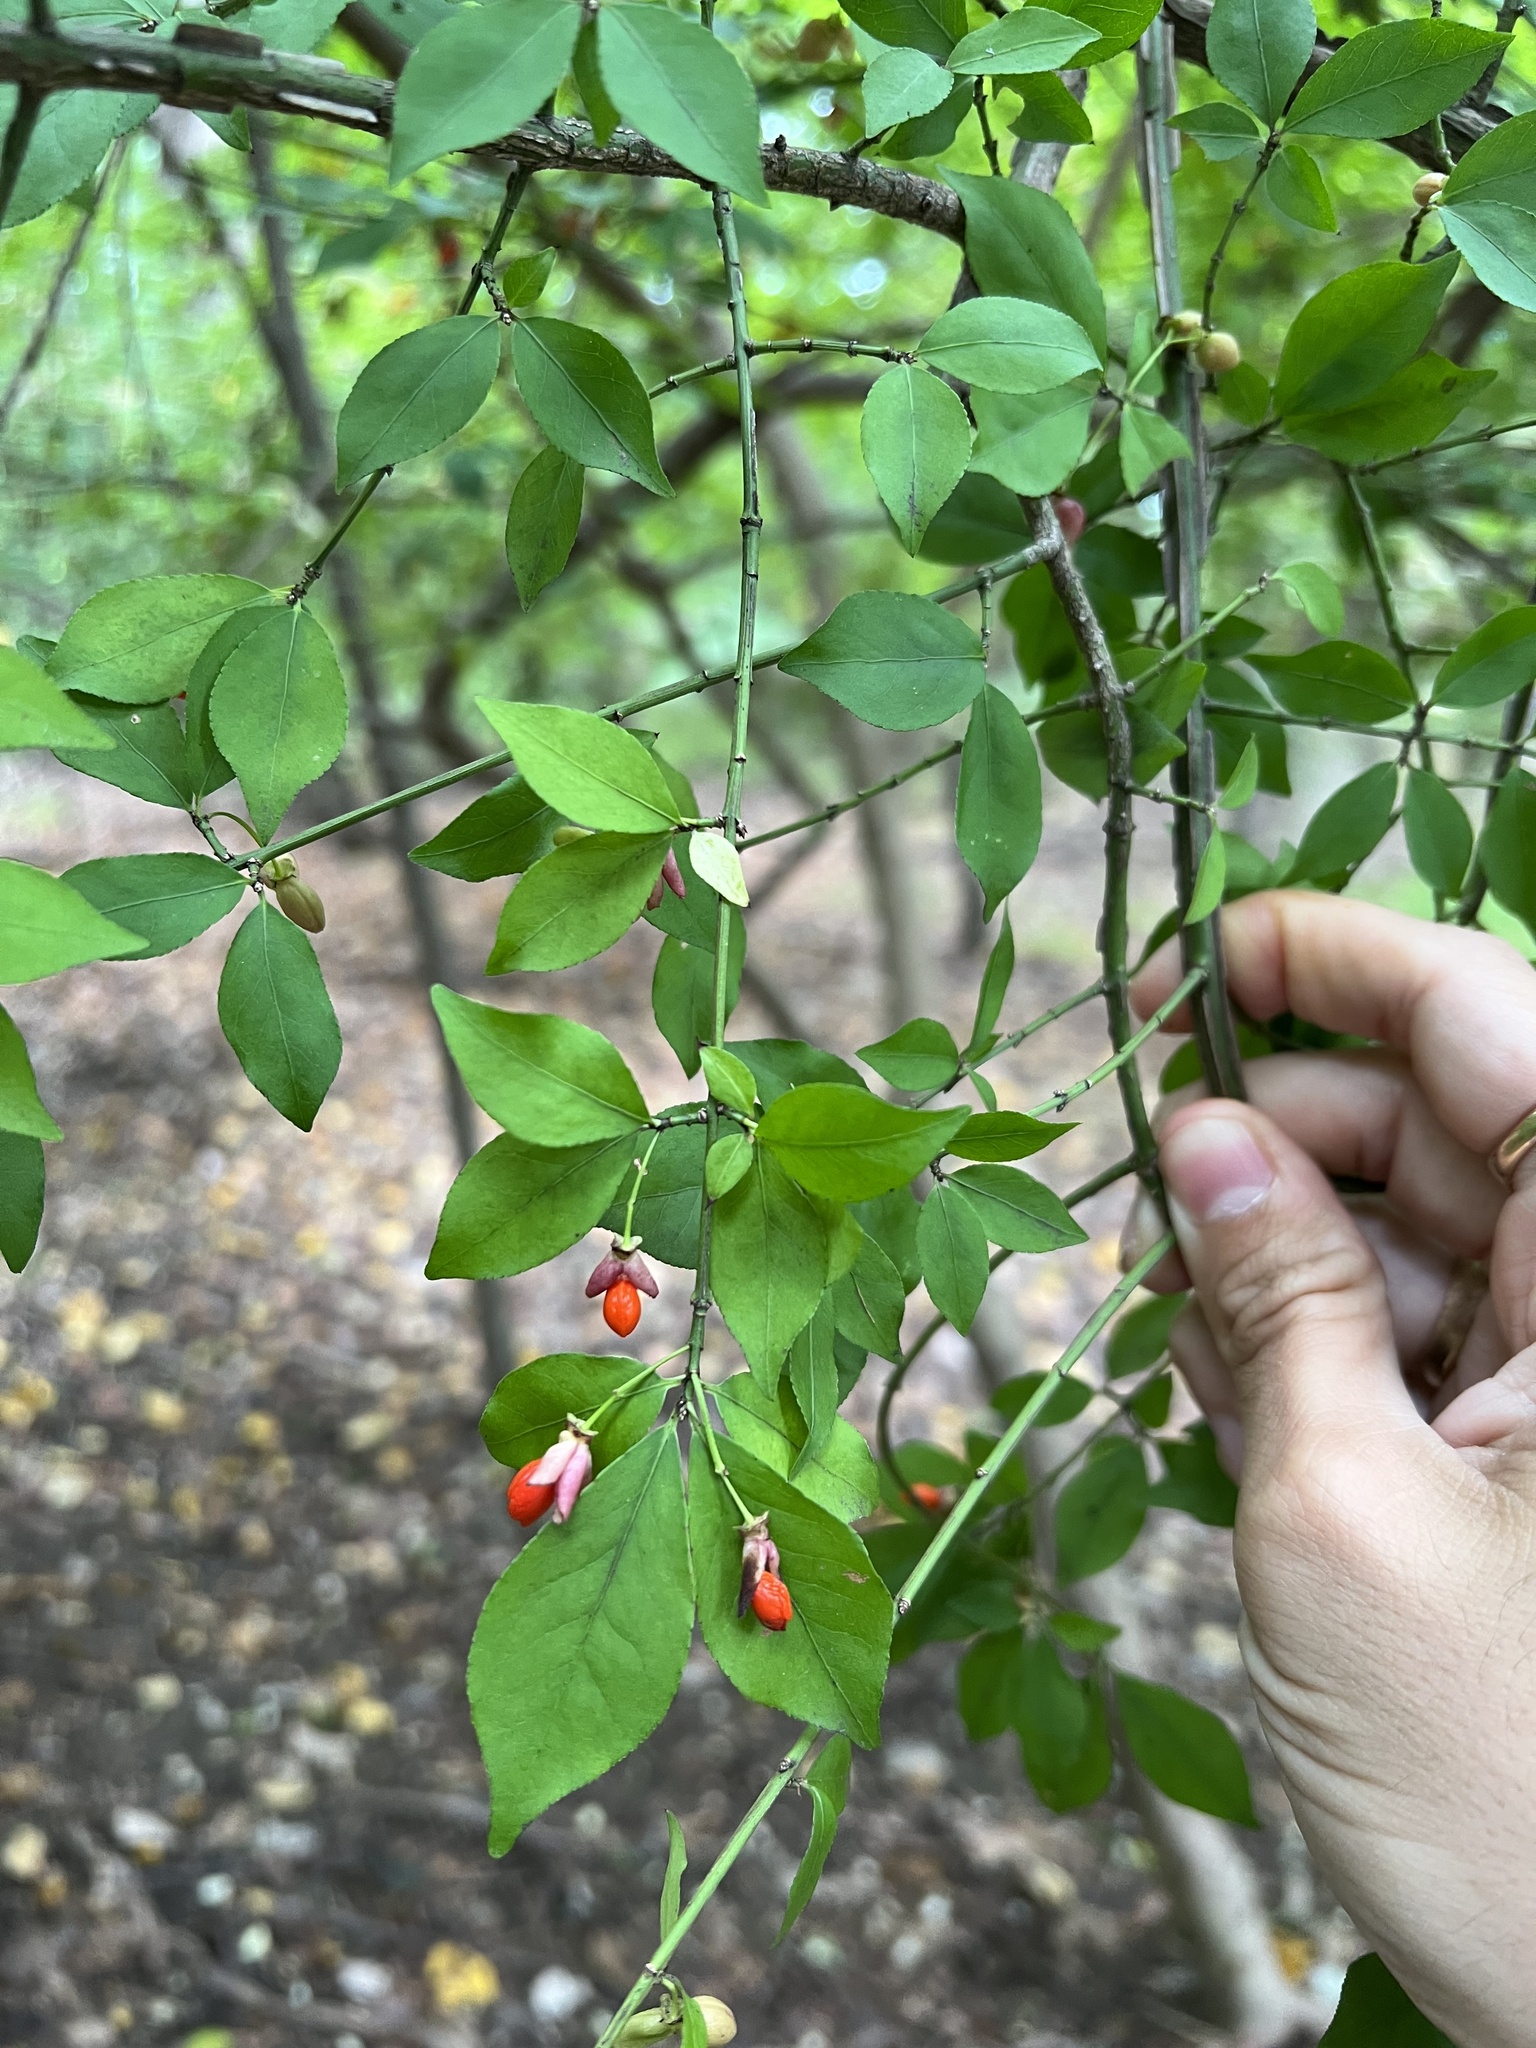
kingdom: Plantae
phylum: Tracheophyta
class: Magnoliopsida
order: Celastrales
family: Celastraceae
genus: Euonymus
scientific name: Euonymus alatus
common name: Winged euonymus
